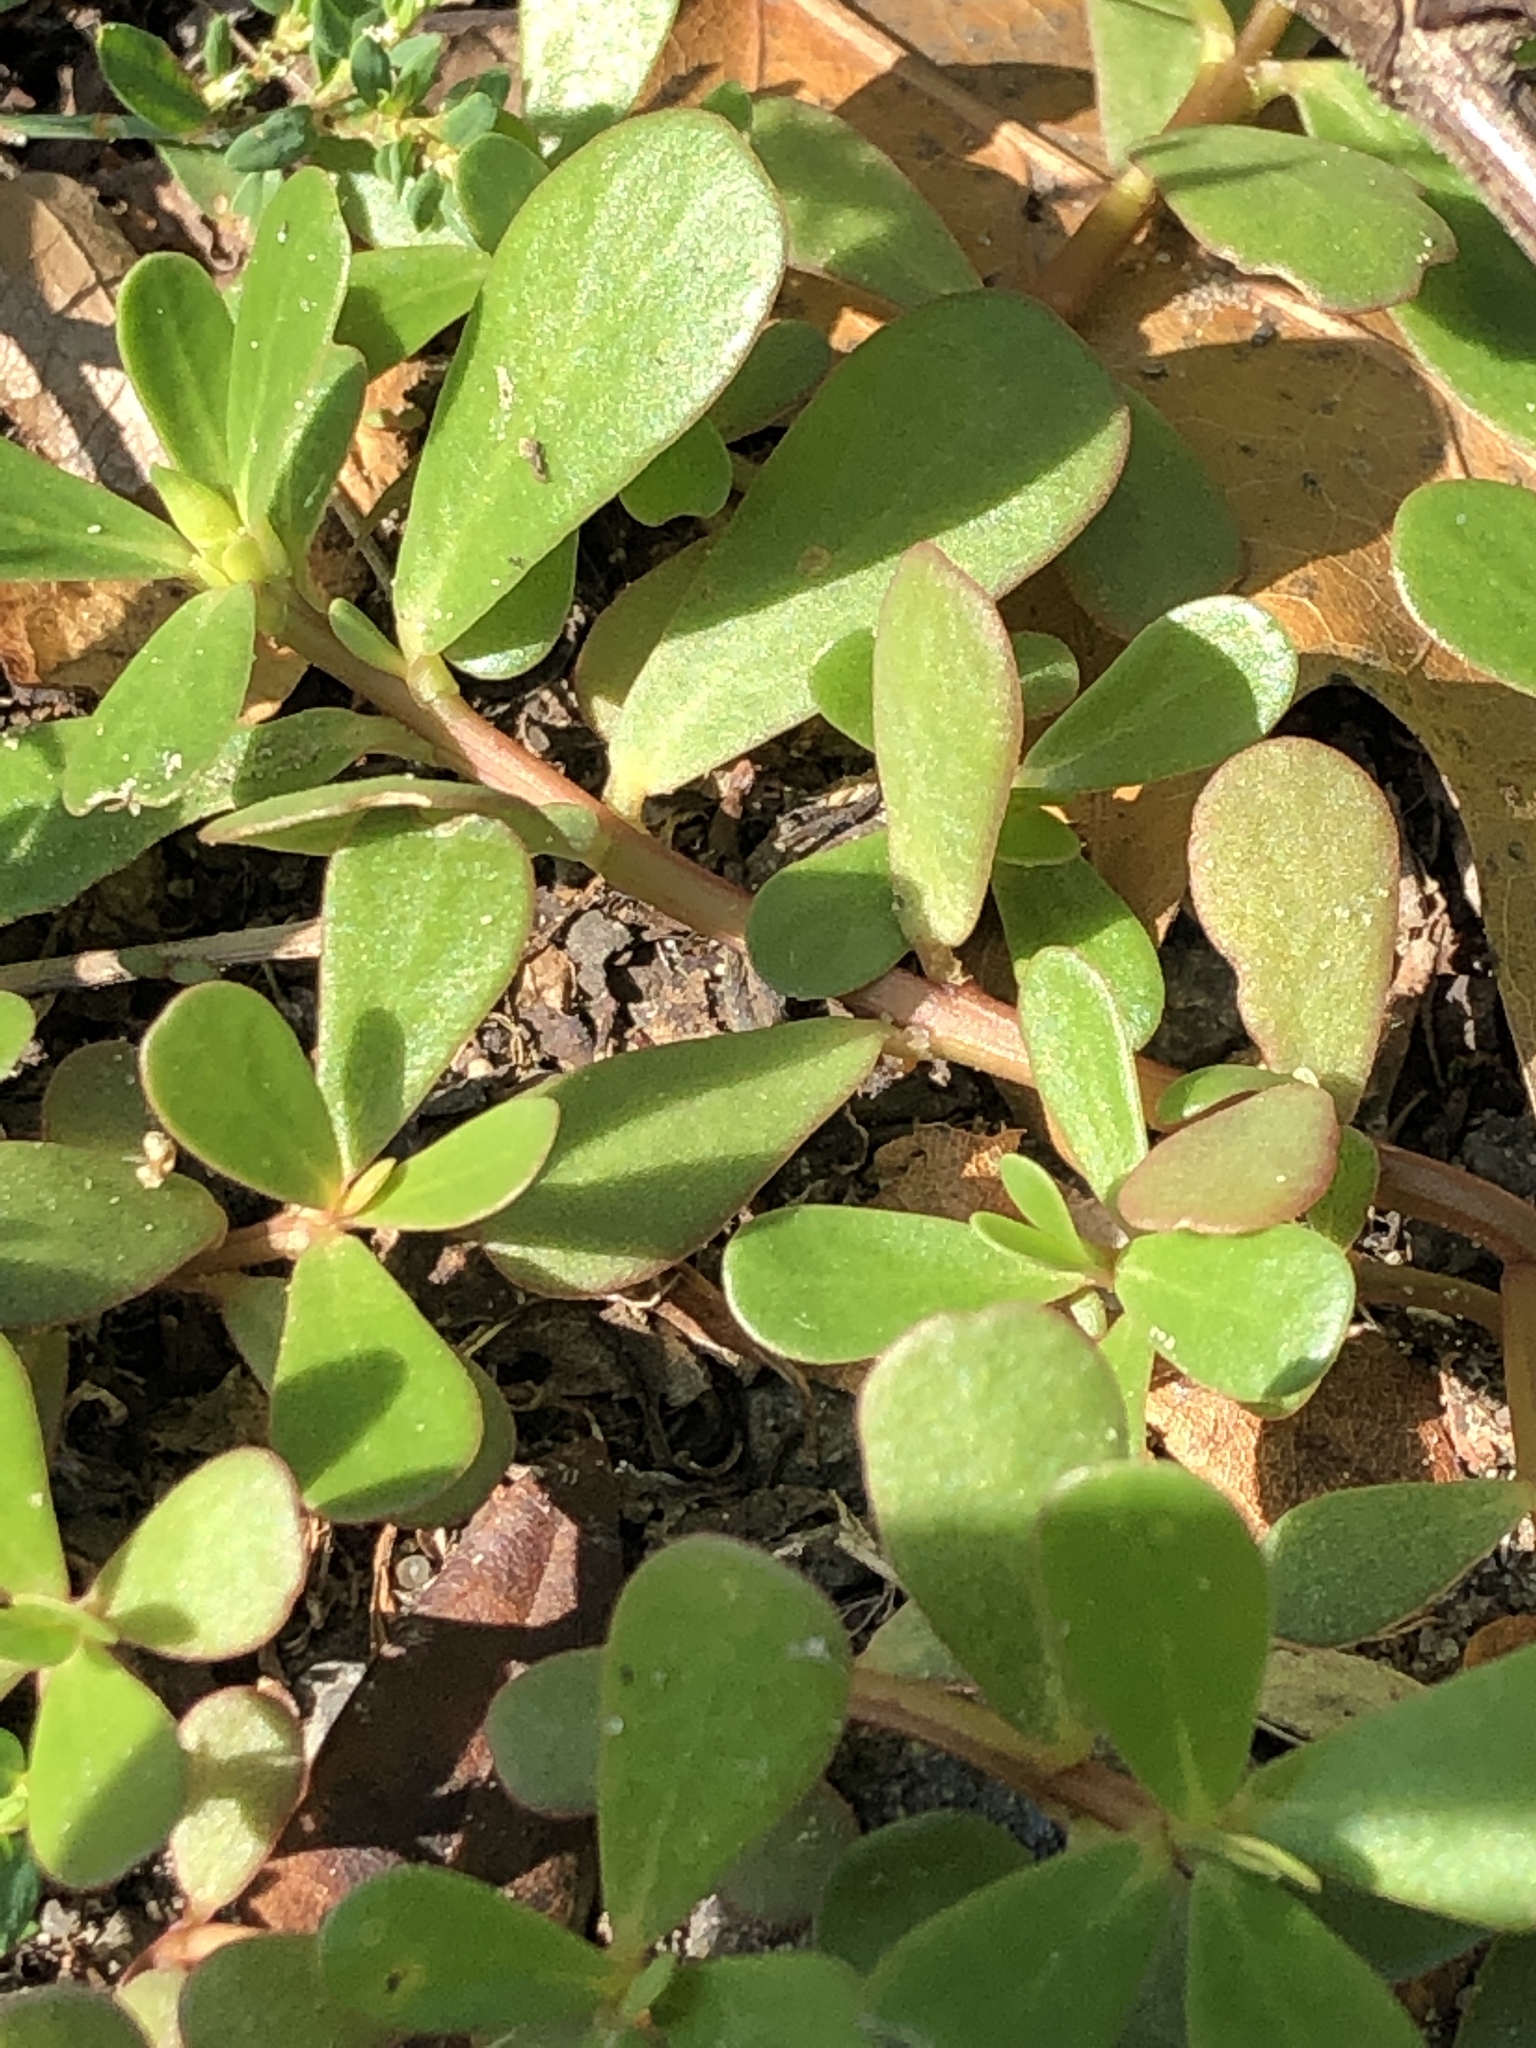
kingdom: Plantae
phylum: Tracheophyta
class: Magnoliopsida
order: Caryophyllales
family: Portulacaceae
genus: Portulaca
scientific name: Portulaca oleracea
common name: Common purslane
